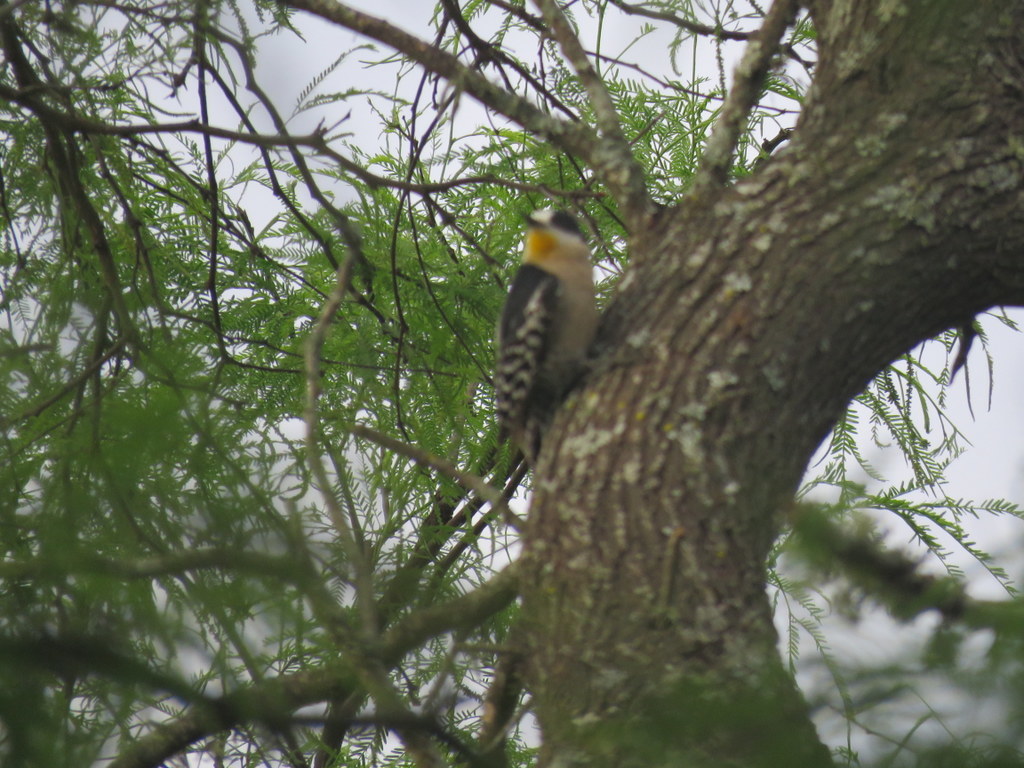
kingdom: Animalia
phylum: Chordata
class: Aves
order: Piciformes
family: Picidae
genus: Melanerpes
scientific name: Melanerpes cactorum
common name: White-fronted woodpecker
